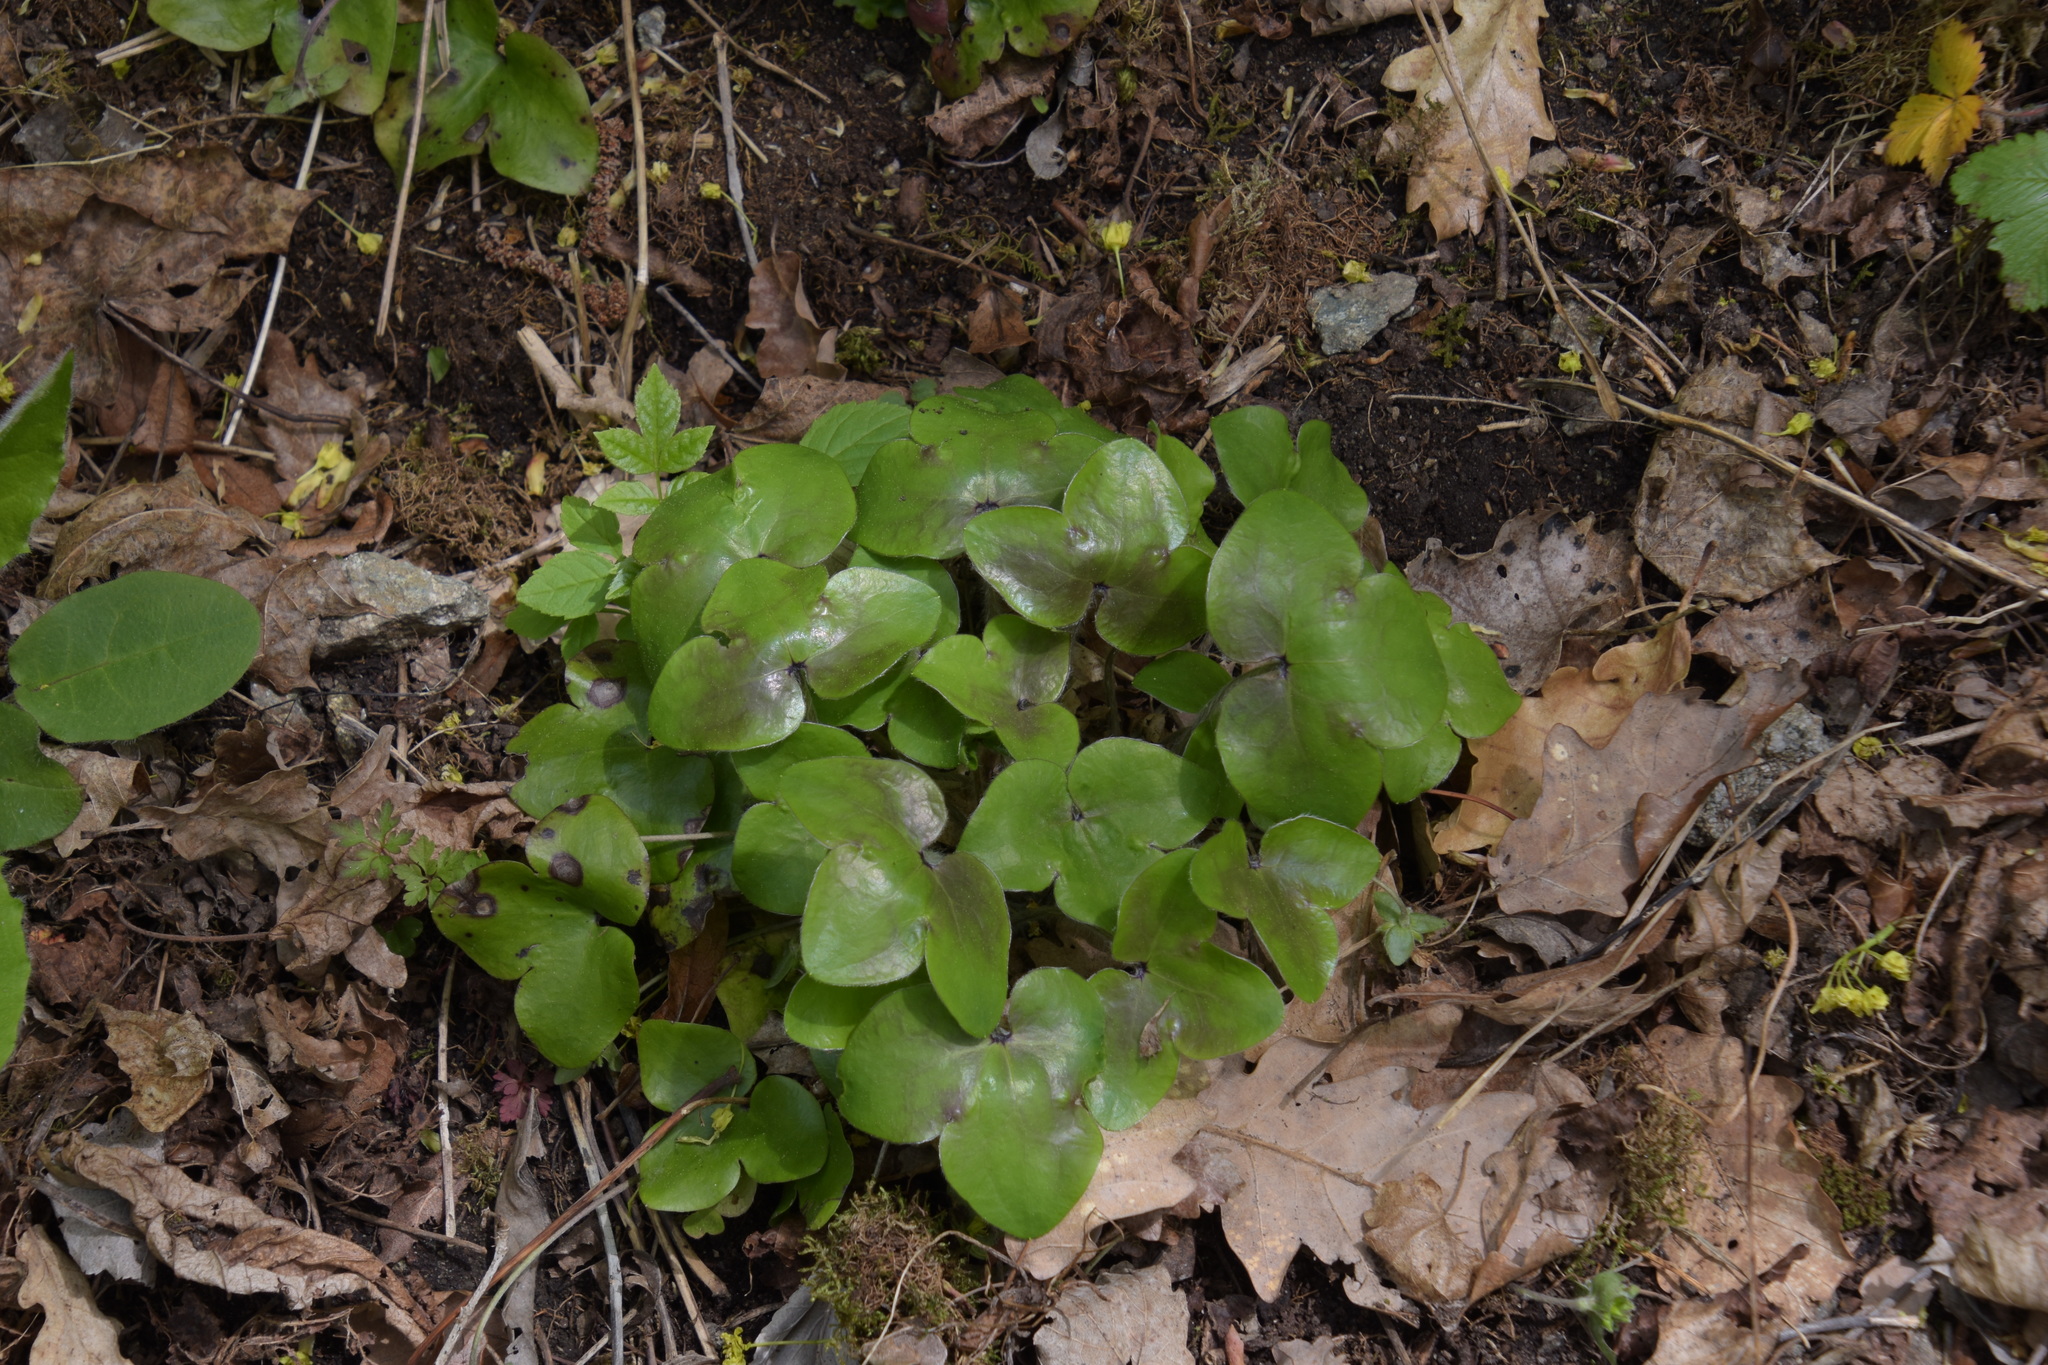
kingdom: Plantae
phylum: Tracheophyta
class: Magnoliopsida
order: Ranunculales
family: Ranunculaceae
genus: Hepatica
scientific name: Hepatica nobilis
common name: Liverleaf
